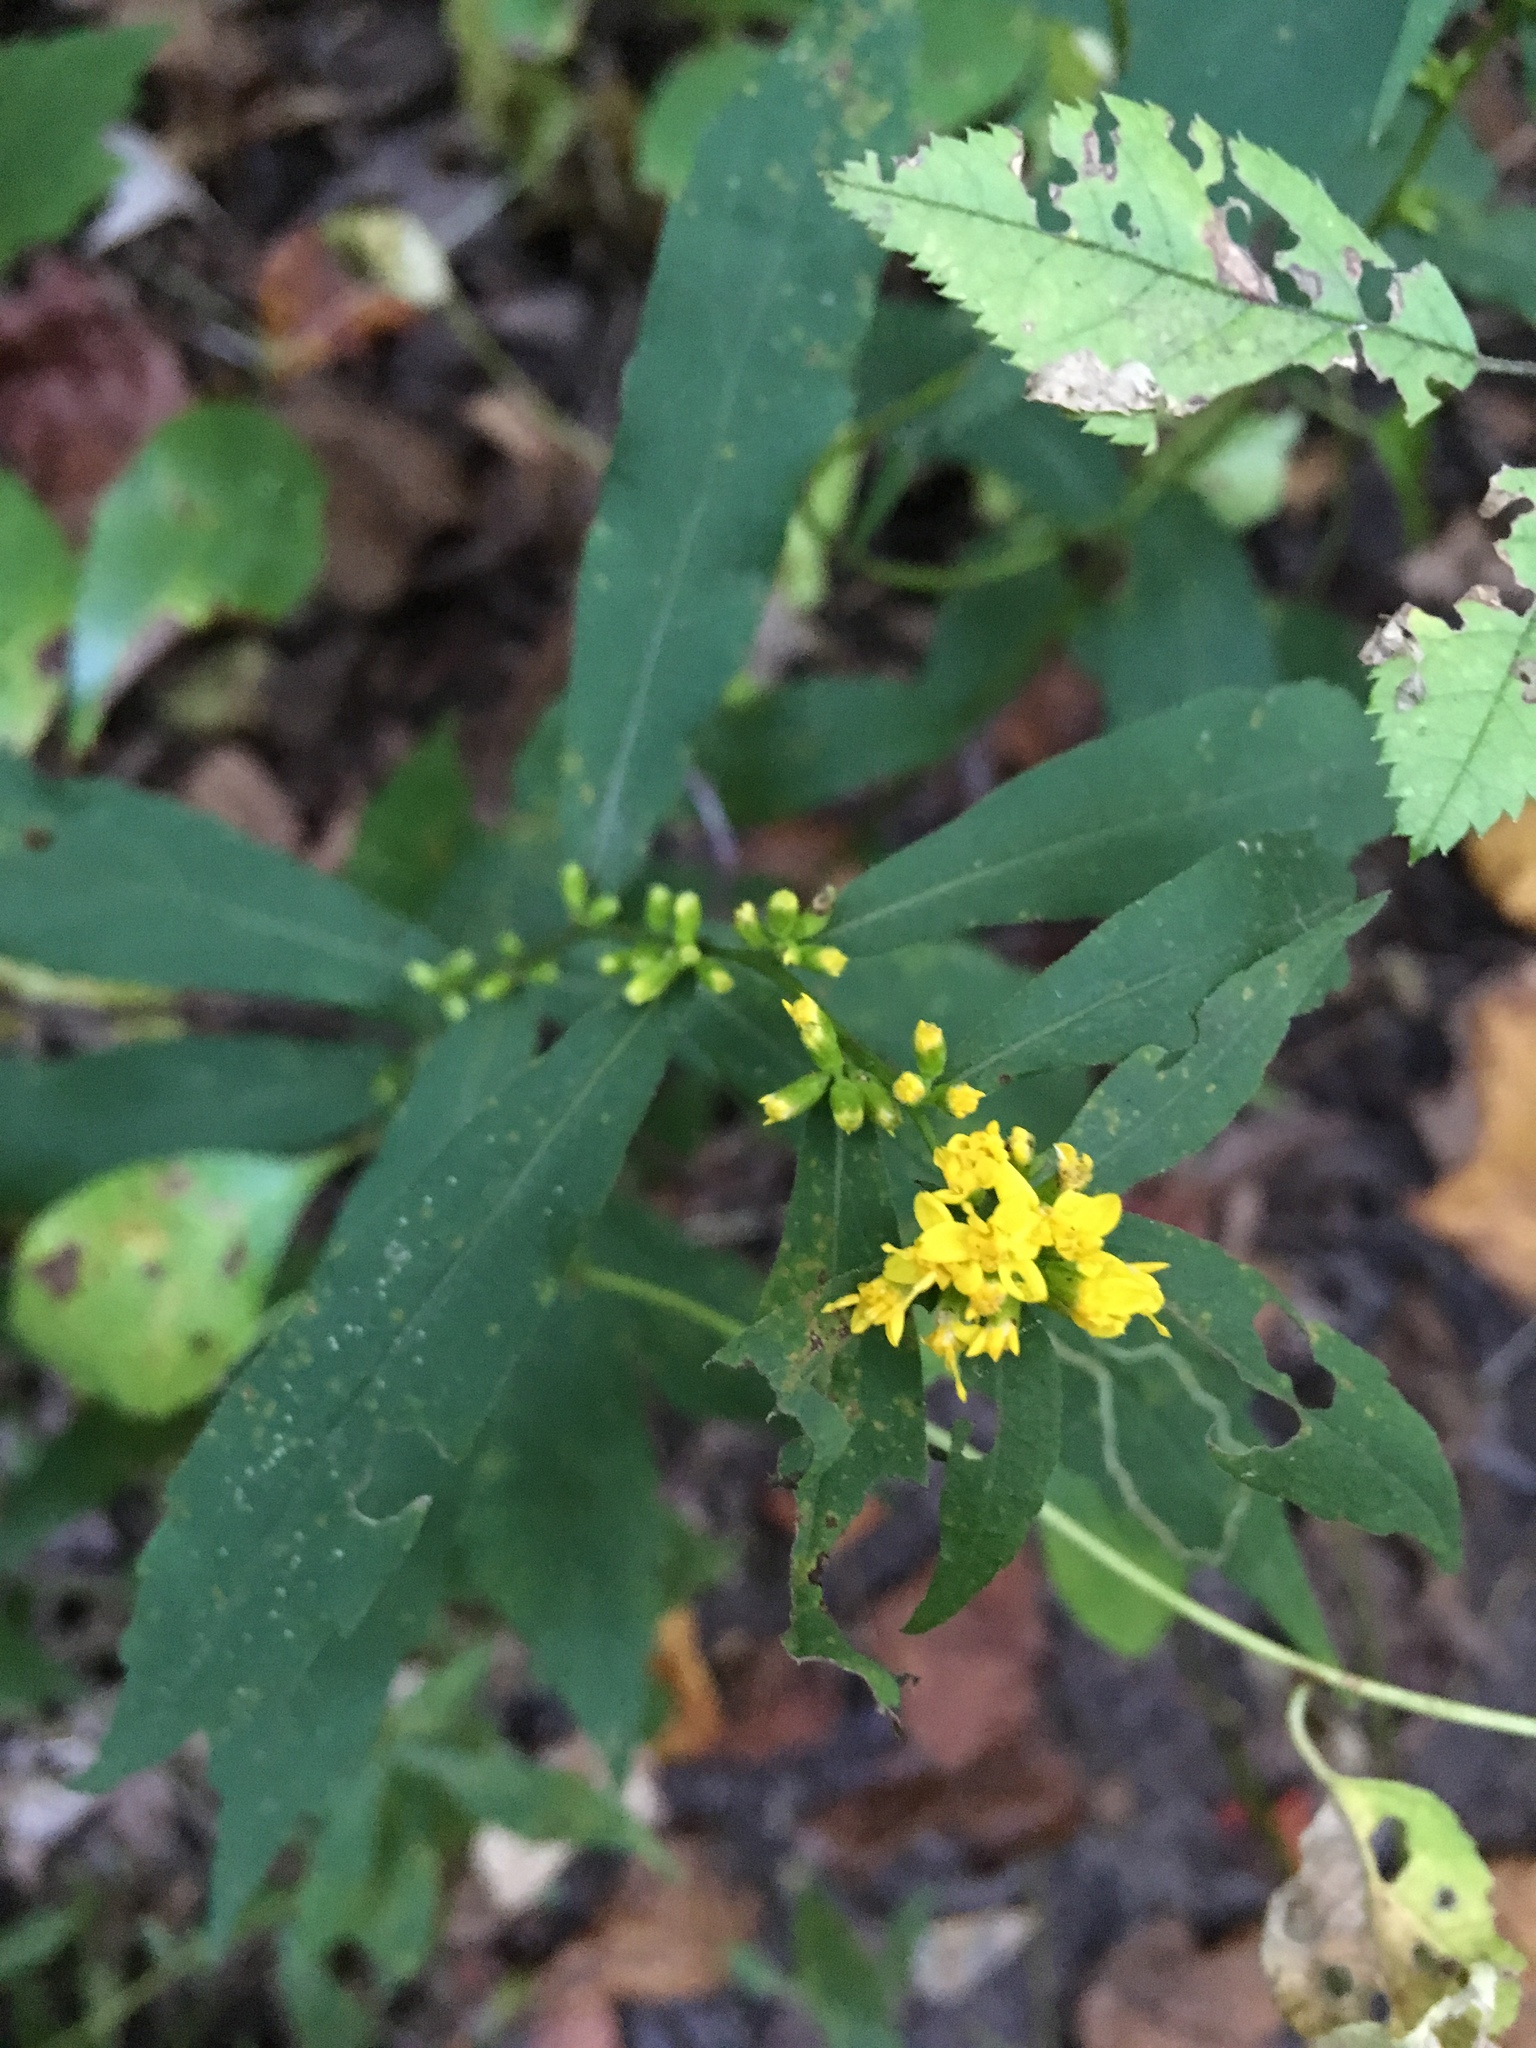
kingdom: Plantae
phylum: Tracheophyta
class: Magnoliopsida
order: Asterales
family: Asteraceae
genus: Solidago
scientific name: Solidago caesia
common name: Woodland goldenrod
